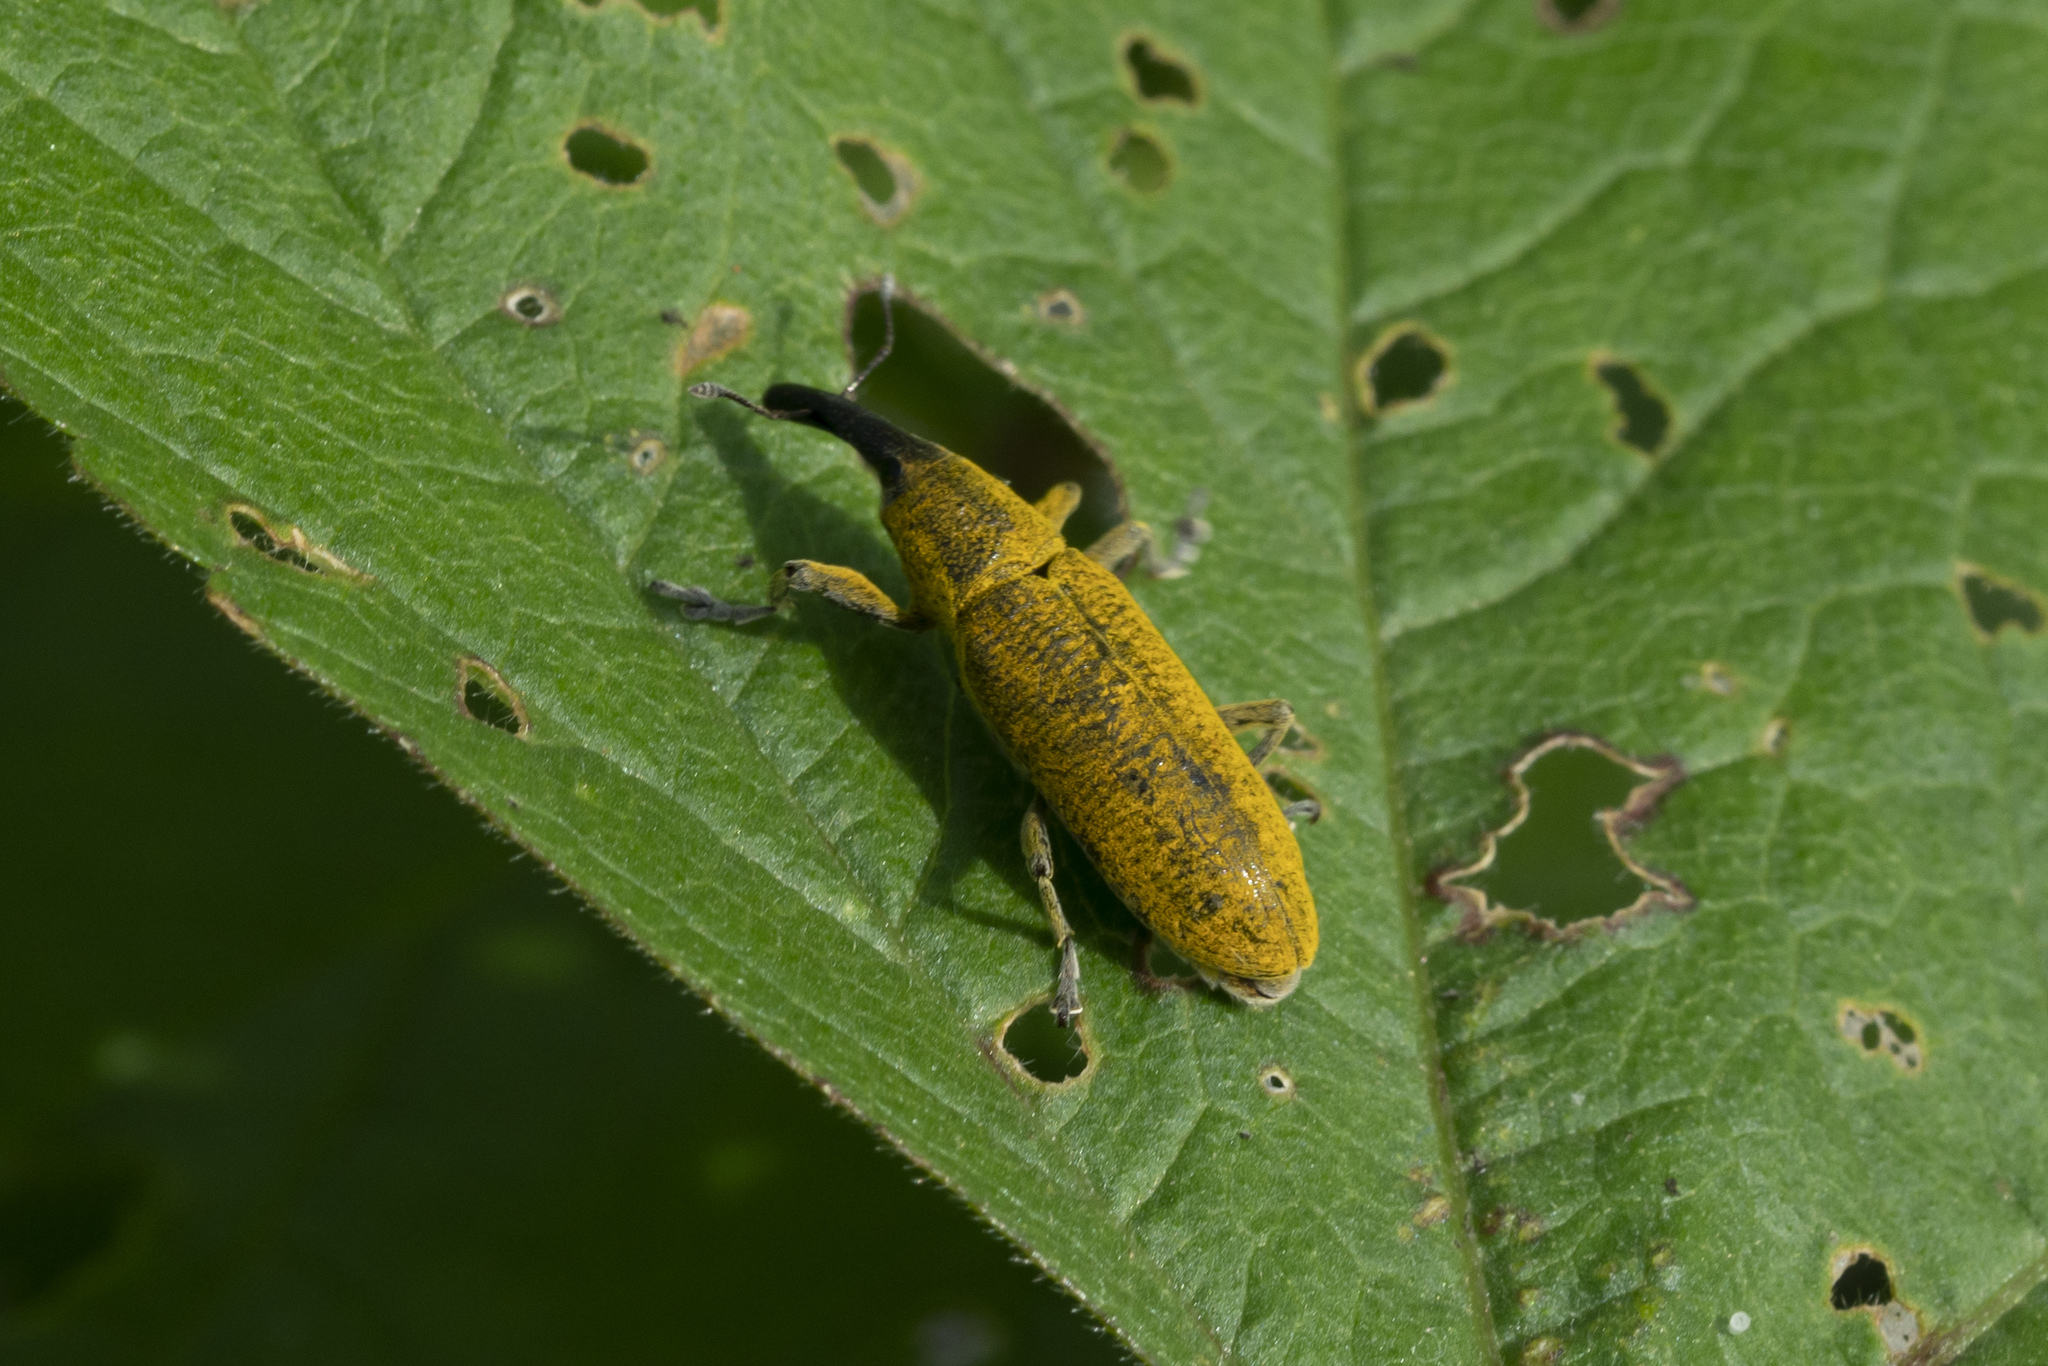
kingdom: Animalia
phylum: Arthropoda
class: Insecta
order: Coleoptera
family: Curculionidae
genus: Lixus
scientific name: Lixus pulverulentus
